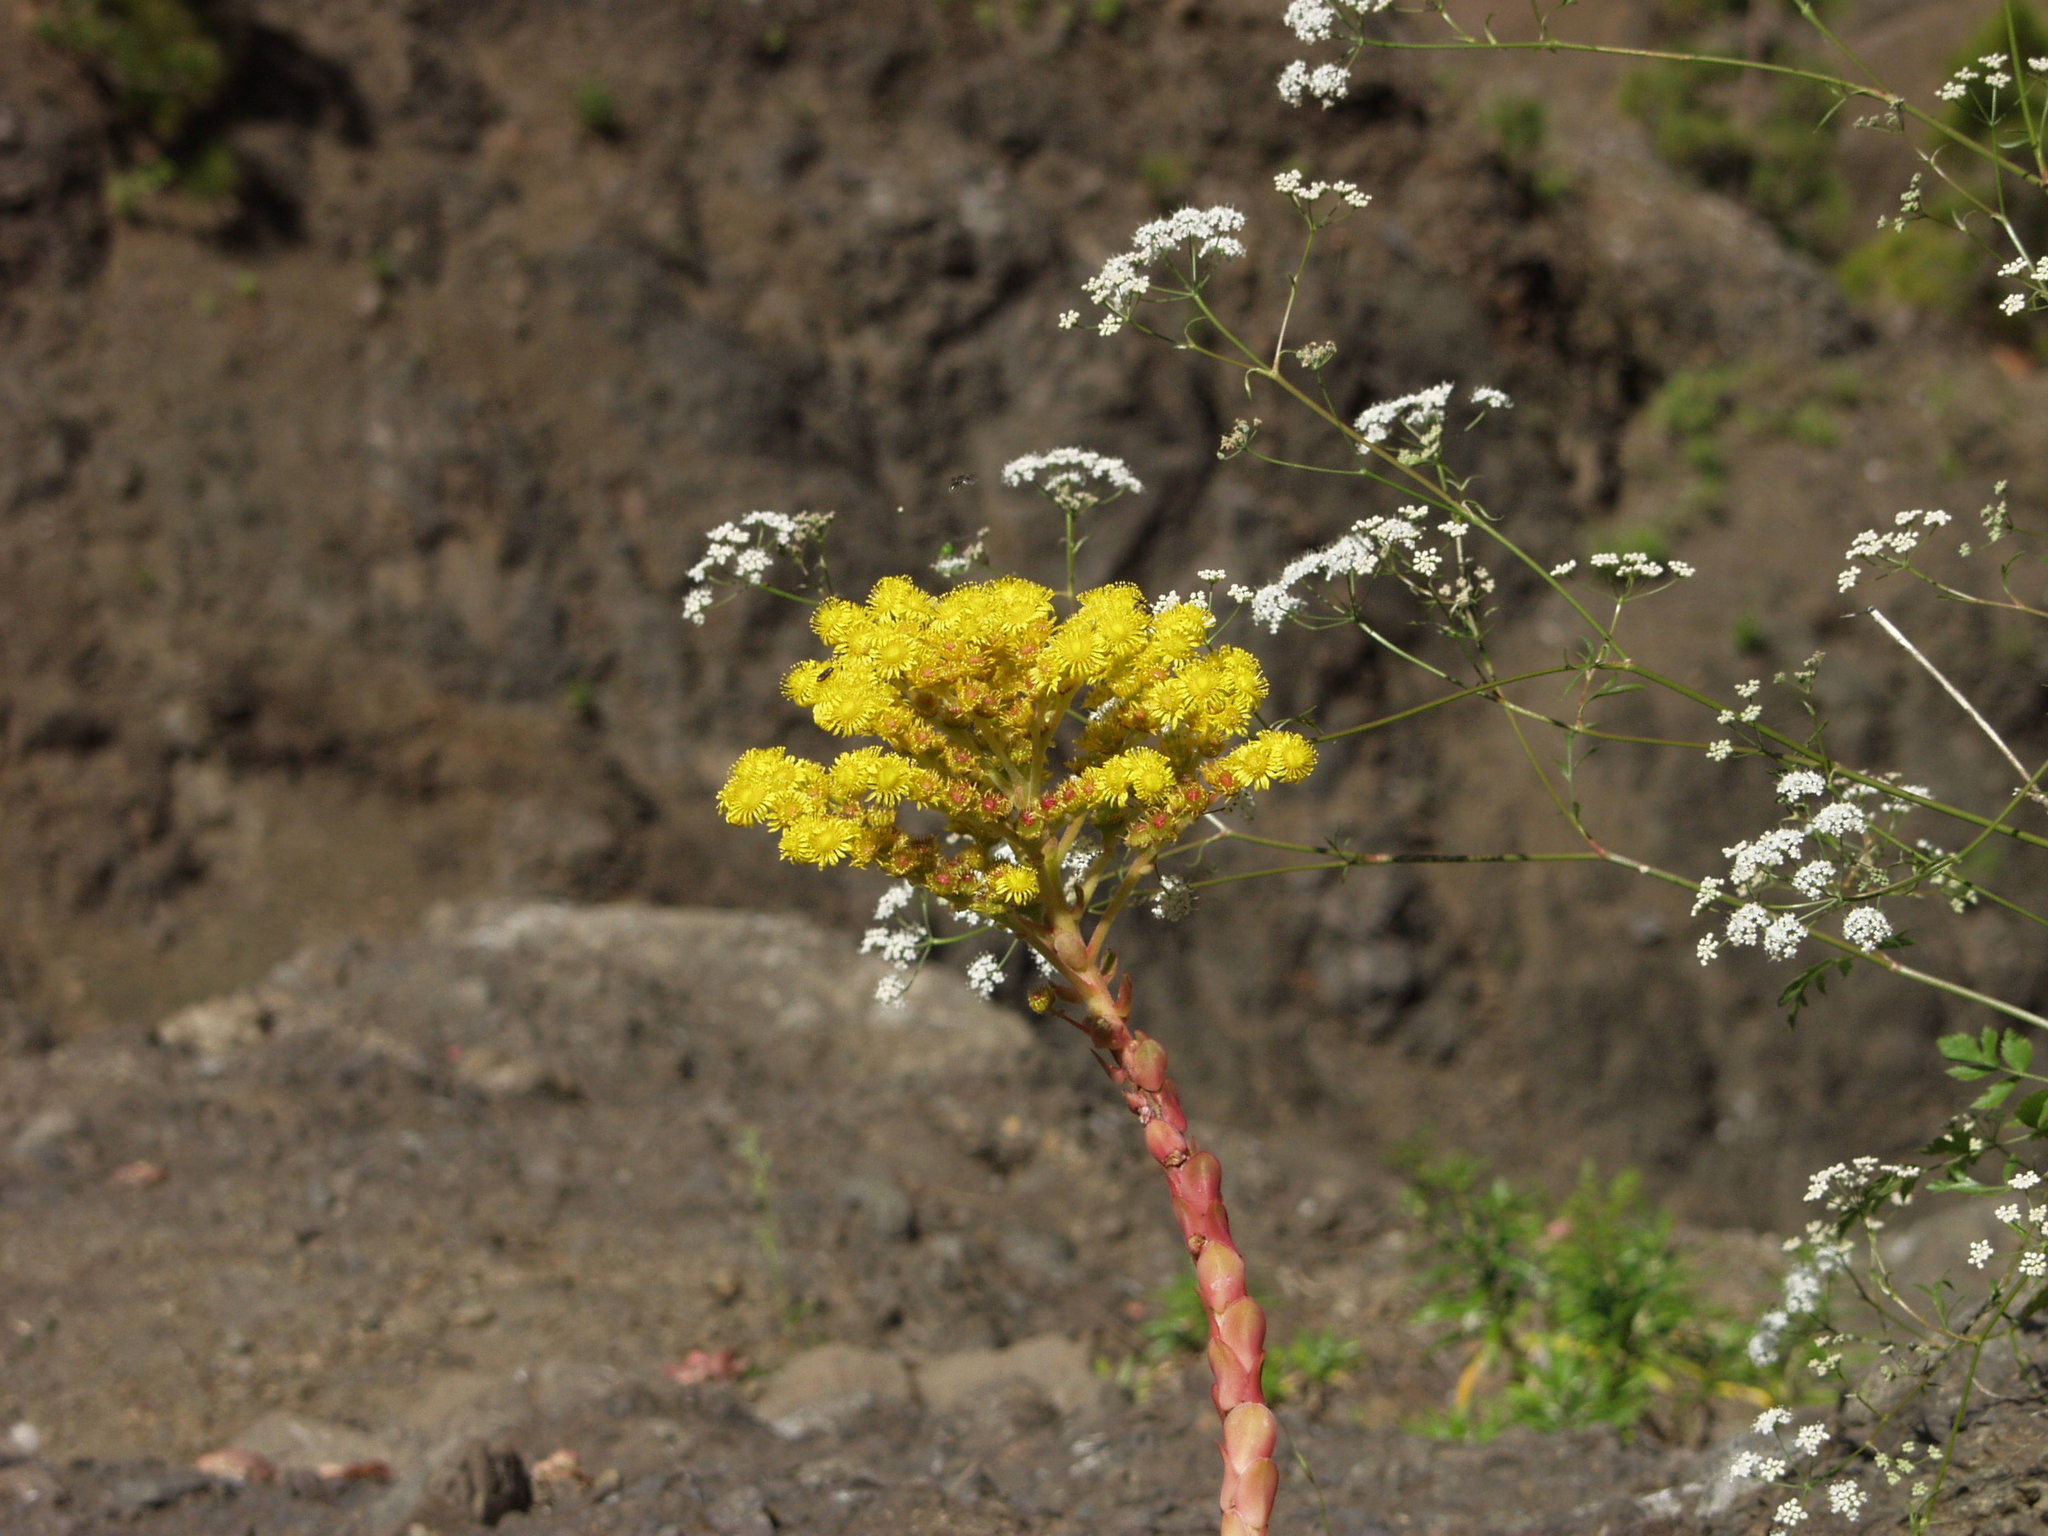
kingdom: Plantae
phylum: Tracheophyta
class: Magnoliopsida
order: Saxifragales
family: Crassulaceae
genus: Aeonium
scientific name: Aeonium diplocyclum
